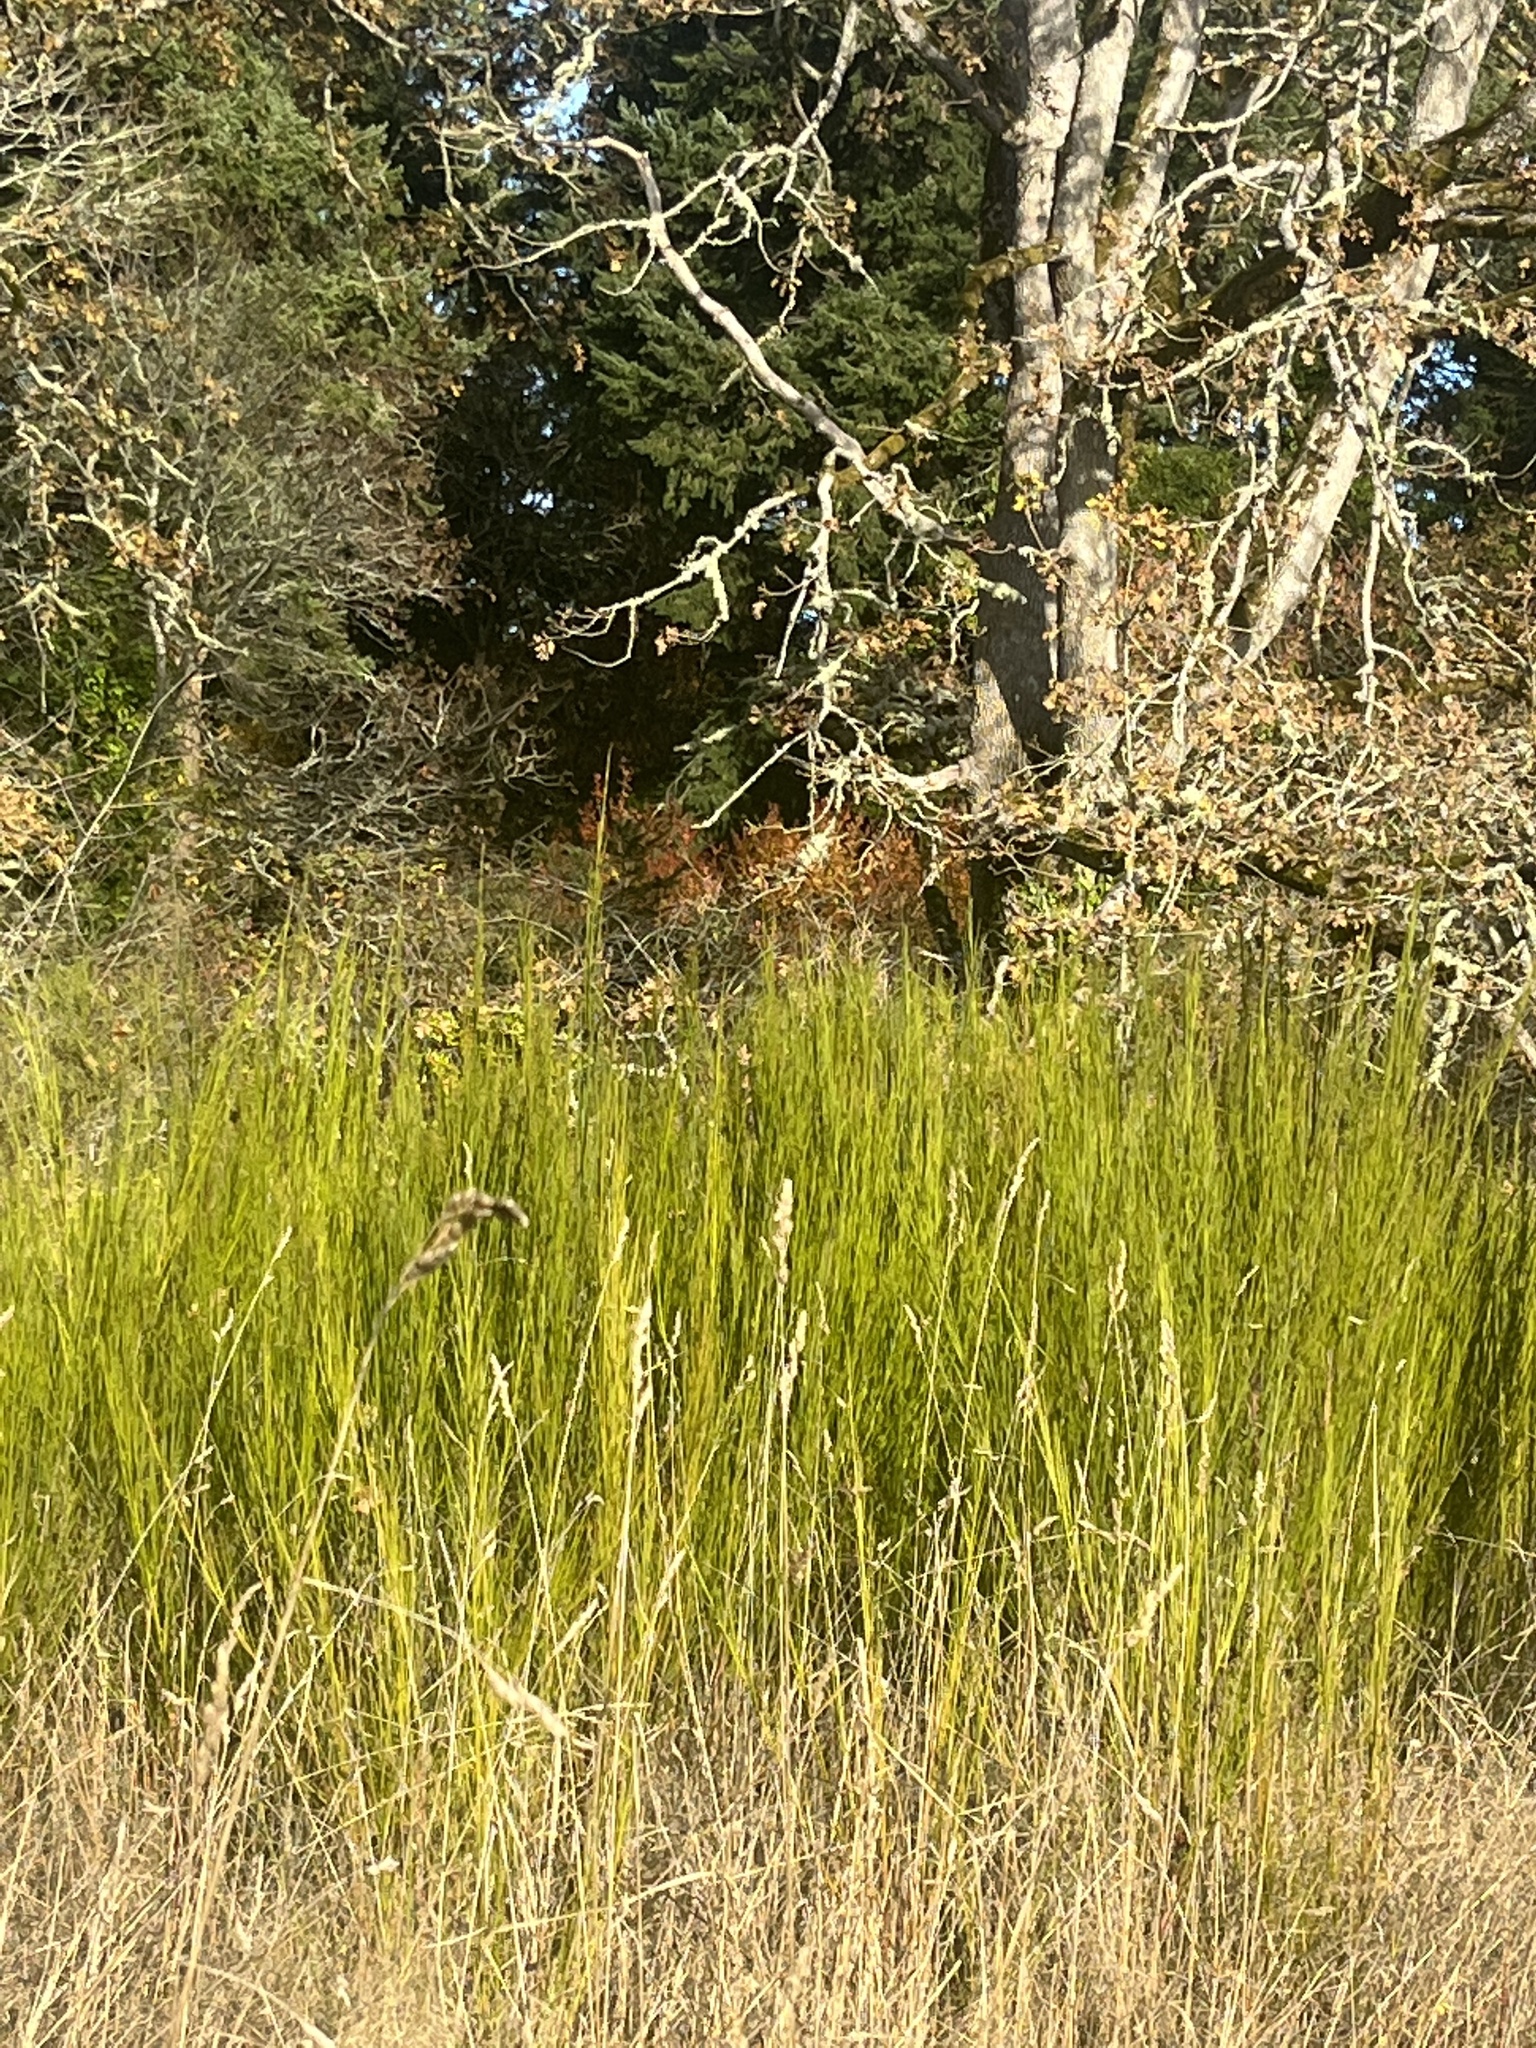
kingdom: Plantae
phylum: Tracheophyta
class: Magnoliopsida
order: Fabales
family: Fabaceae
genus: Cytisus
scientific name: Cytisus scoparius
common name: Scotch broom
